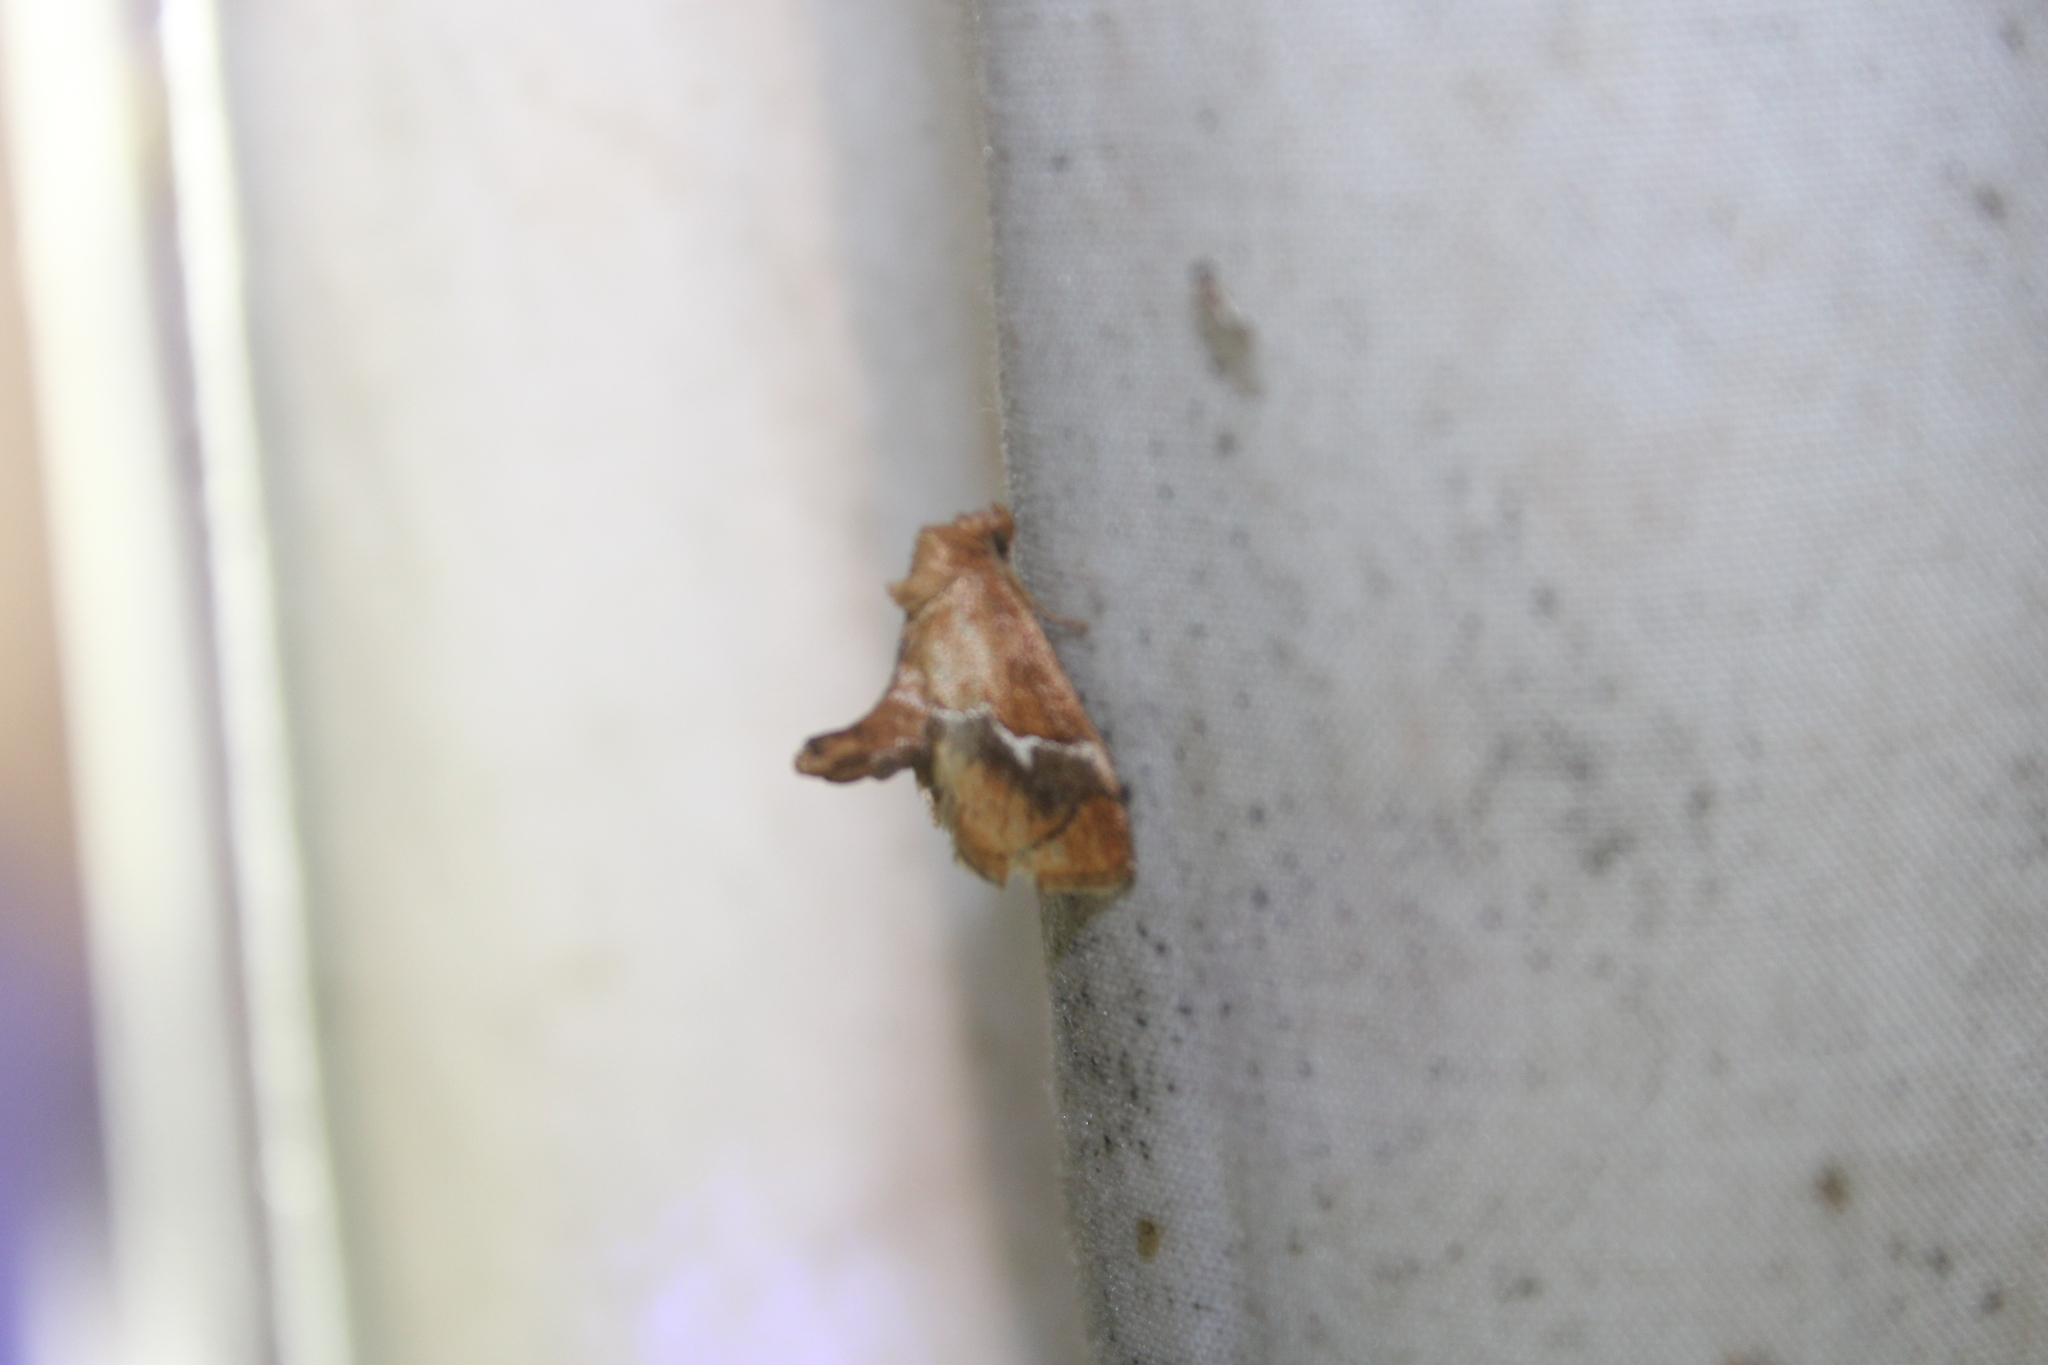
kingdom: Animalia
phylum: Arthropoda
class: Insecta
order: Lepidoptera
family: Limacodidae
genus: Lithacodes
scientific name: Lithacodes fasciola
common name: Yellow-shouldered slug moth
